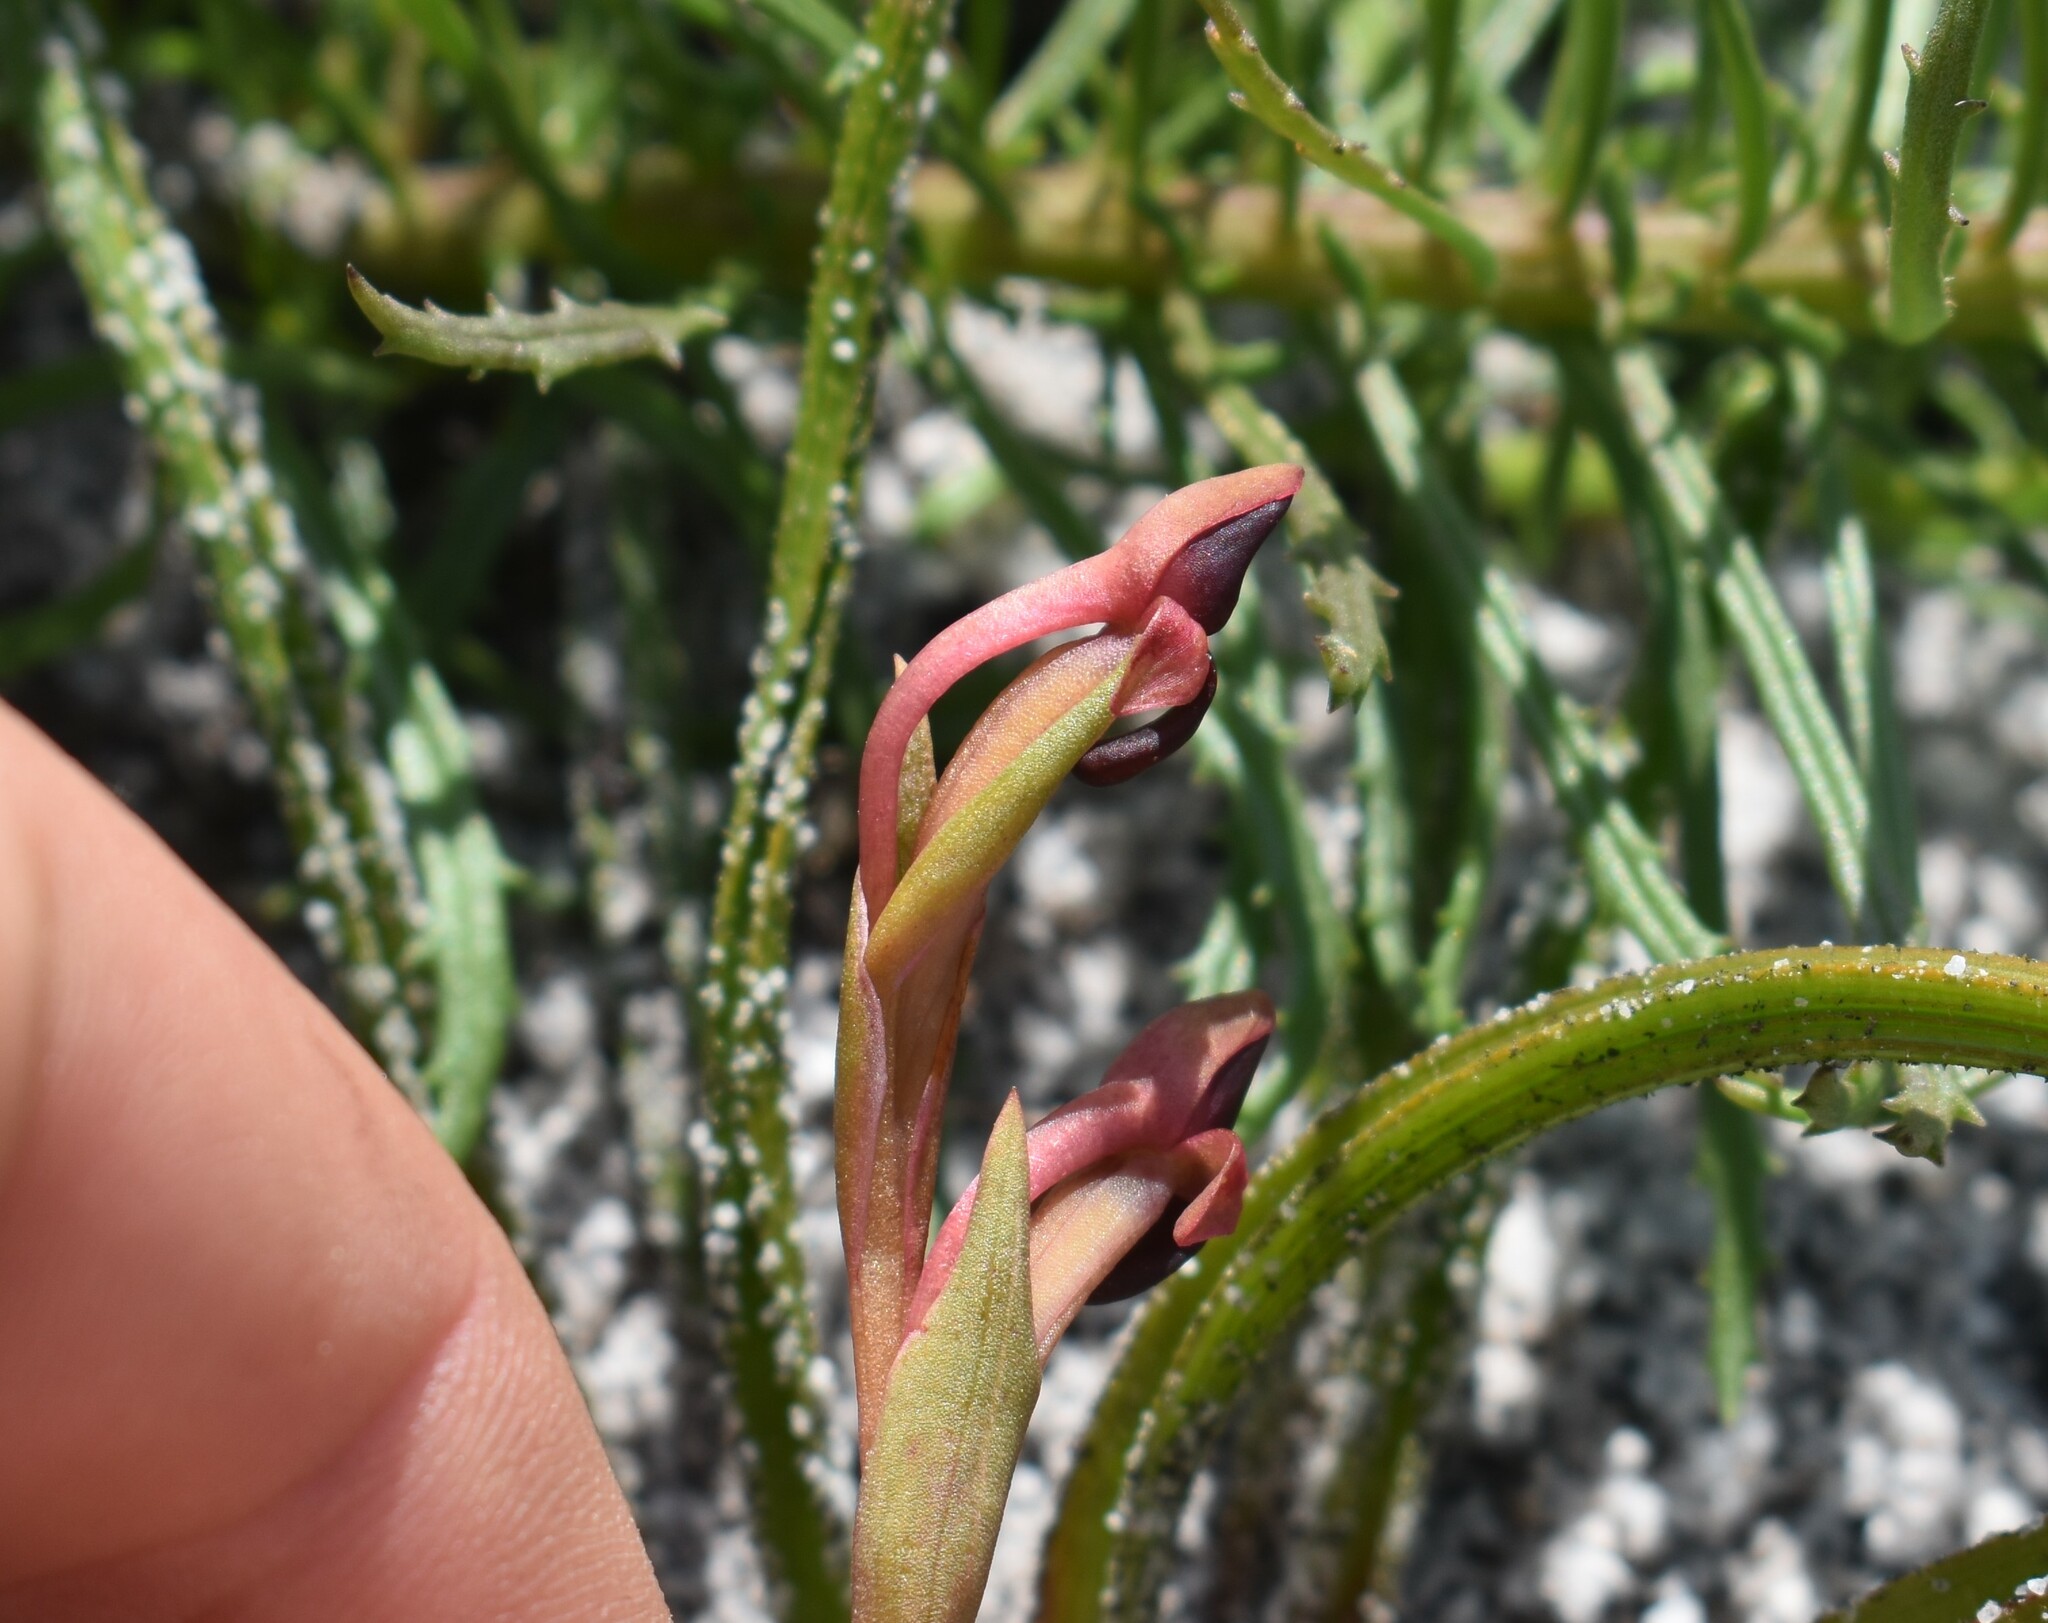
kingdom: Plantae
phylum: Tracheophyta
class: Liliopsida
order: Asparagales
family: Orchidaceae
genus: Disa
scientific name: Disa bolusiana
